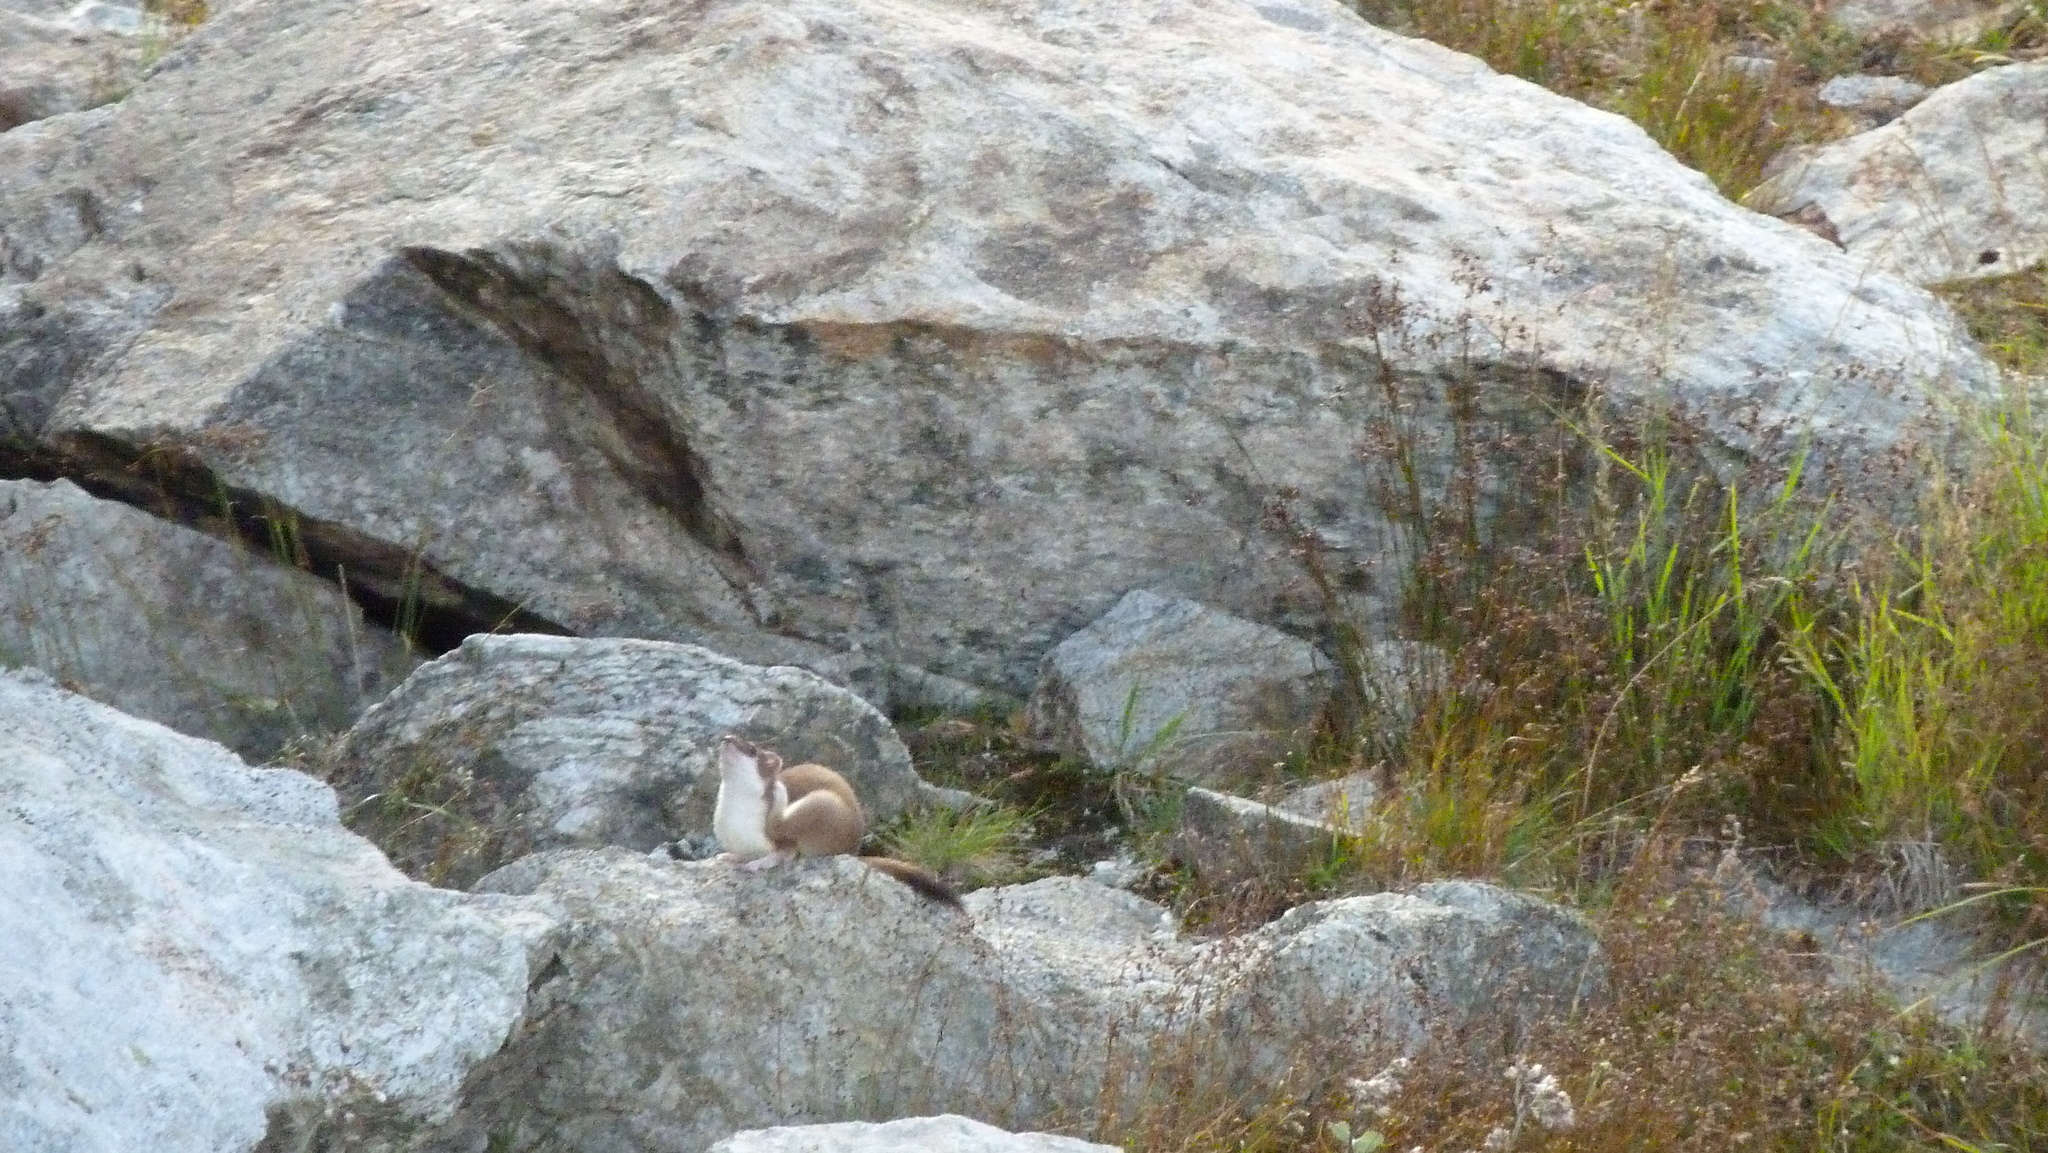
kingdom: Animalia
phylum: Chordata
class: Mammalia
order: Carnivora
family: Mustelidae
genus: Mustela
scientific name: Mustela erminea
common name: Stoat
